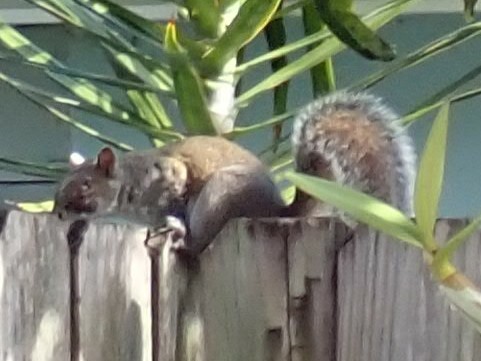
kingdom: Animalia
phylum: Chordata
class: Mammalia
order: Rodentia
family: Sciuridae
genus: Sciurus
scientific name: Sciurus carolinensis
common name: Eastern gray squirrel
